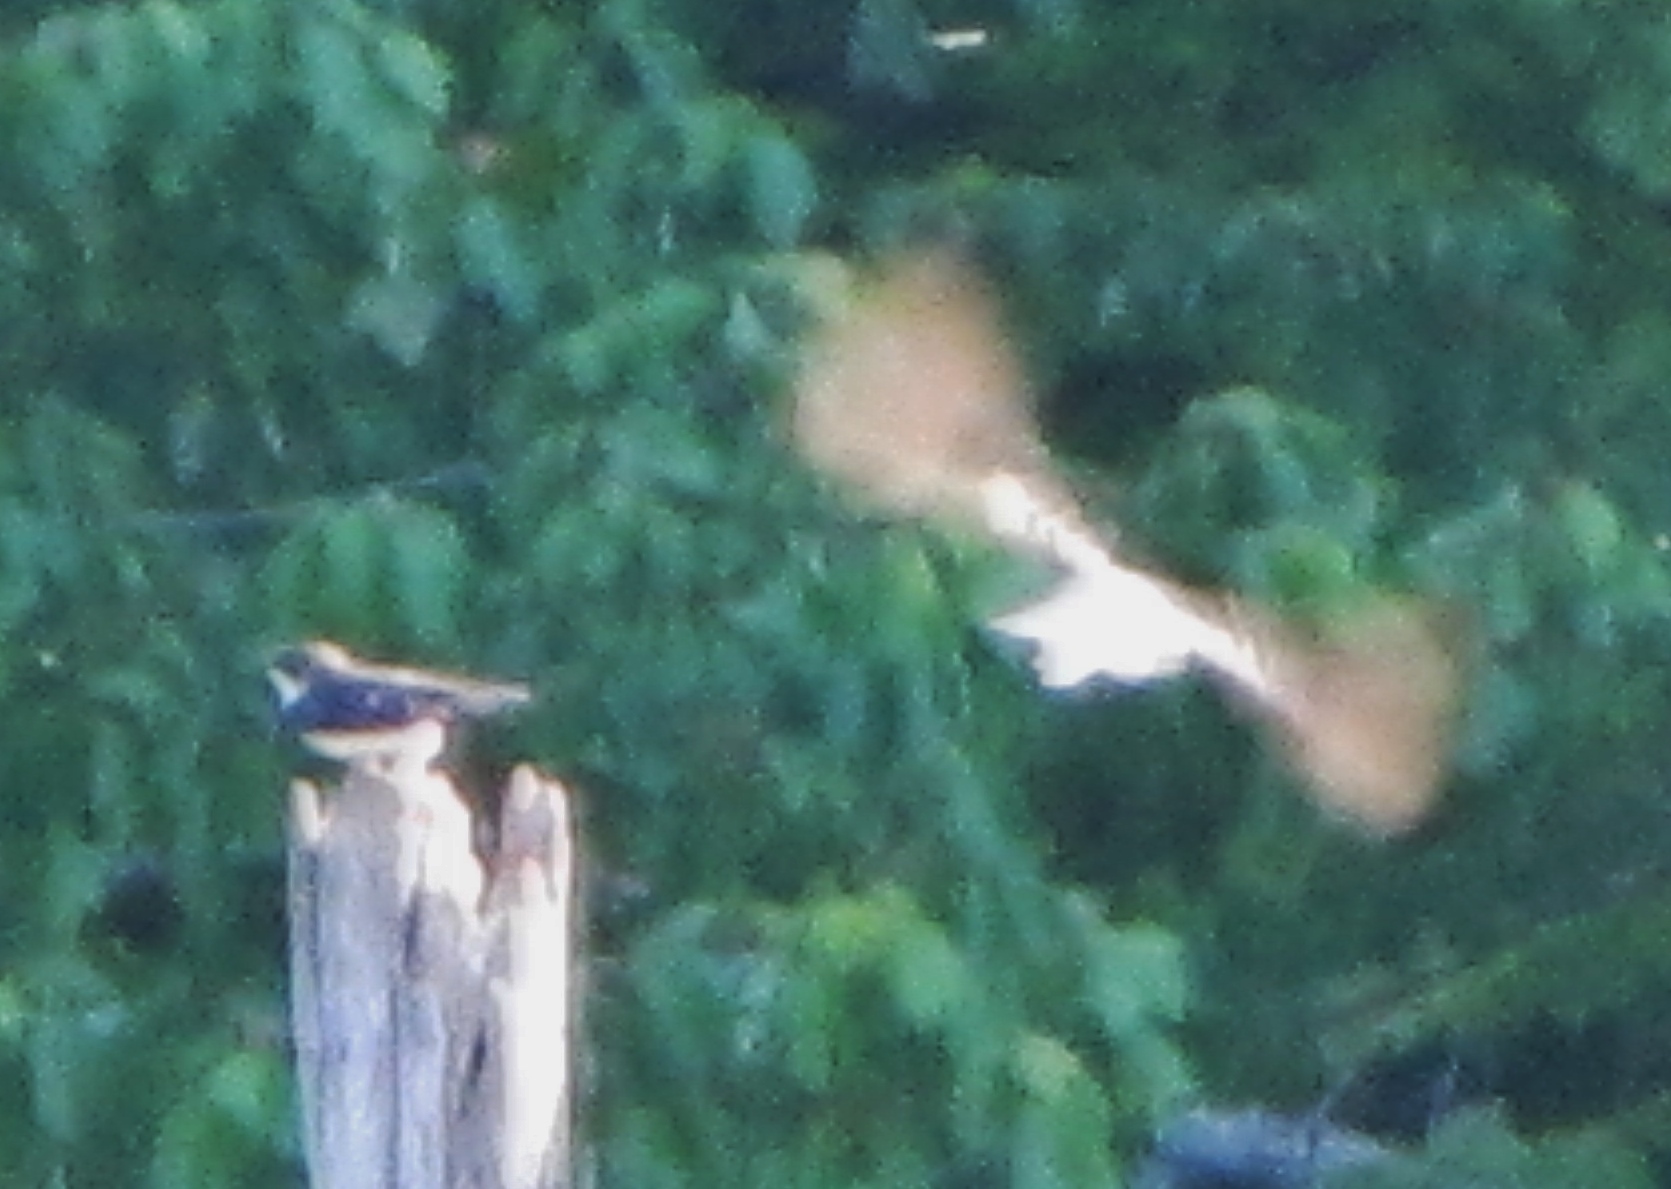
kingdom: Animalia
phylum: Chordata
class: Aves
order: Passeriformes
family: Hirundinidae
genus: Tachycineta
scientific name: Tachycineta bicolor
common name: Tree swallow
